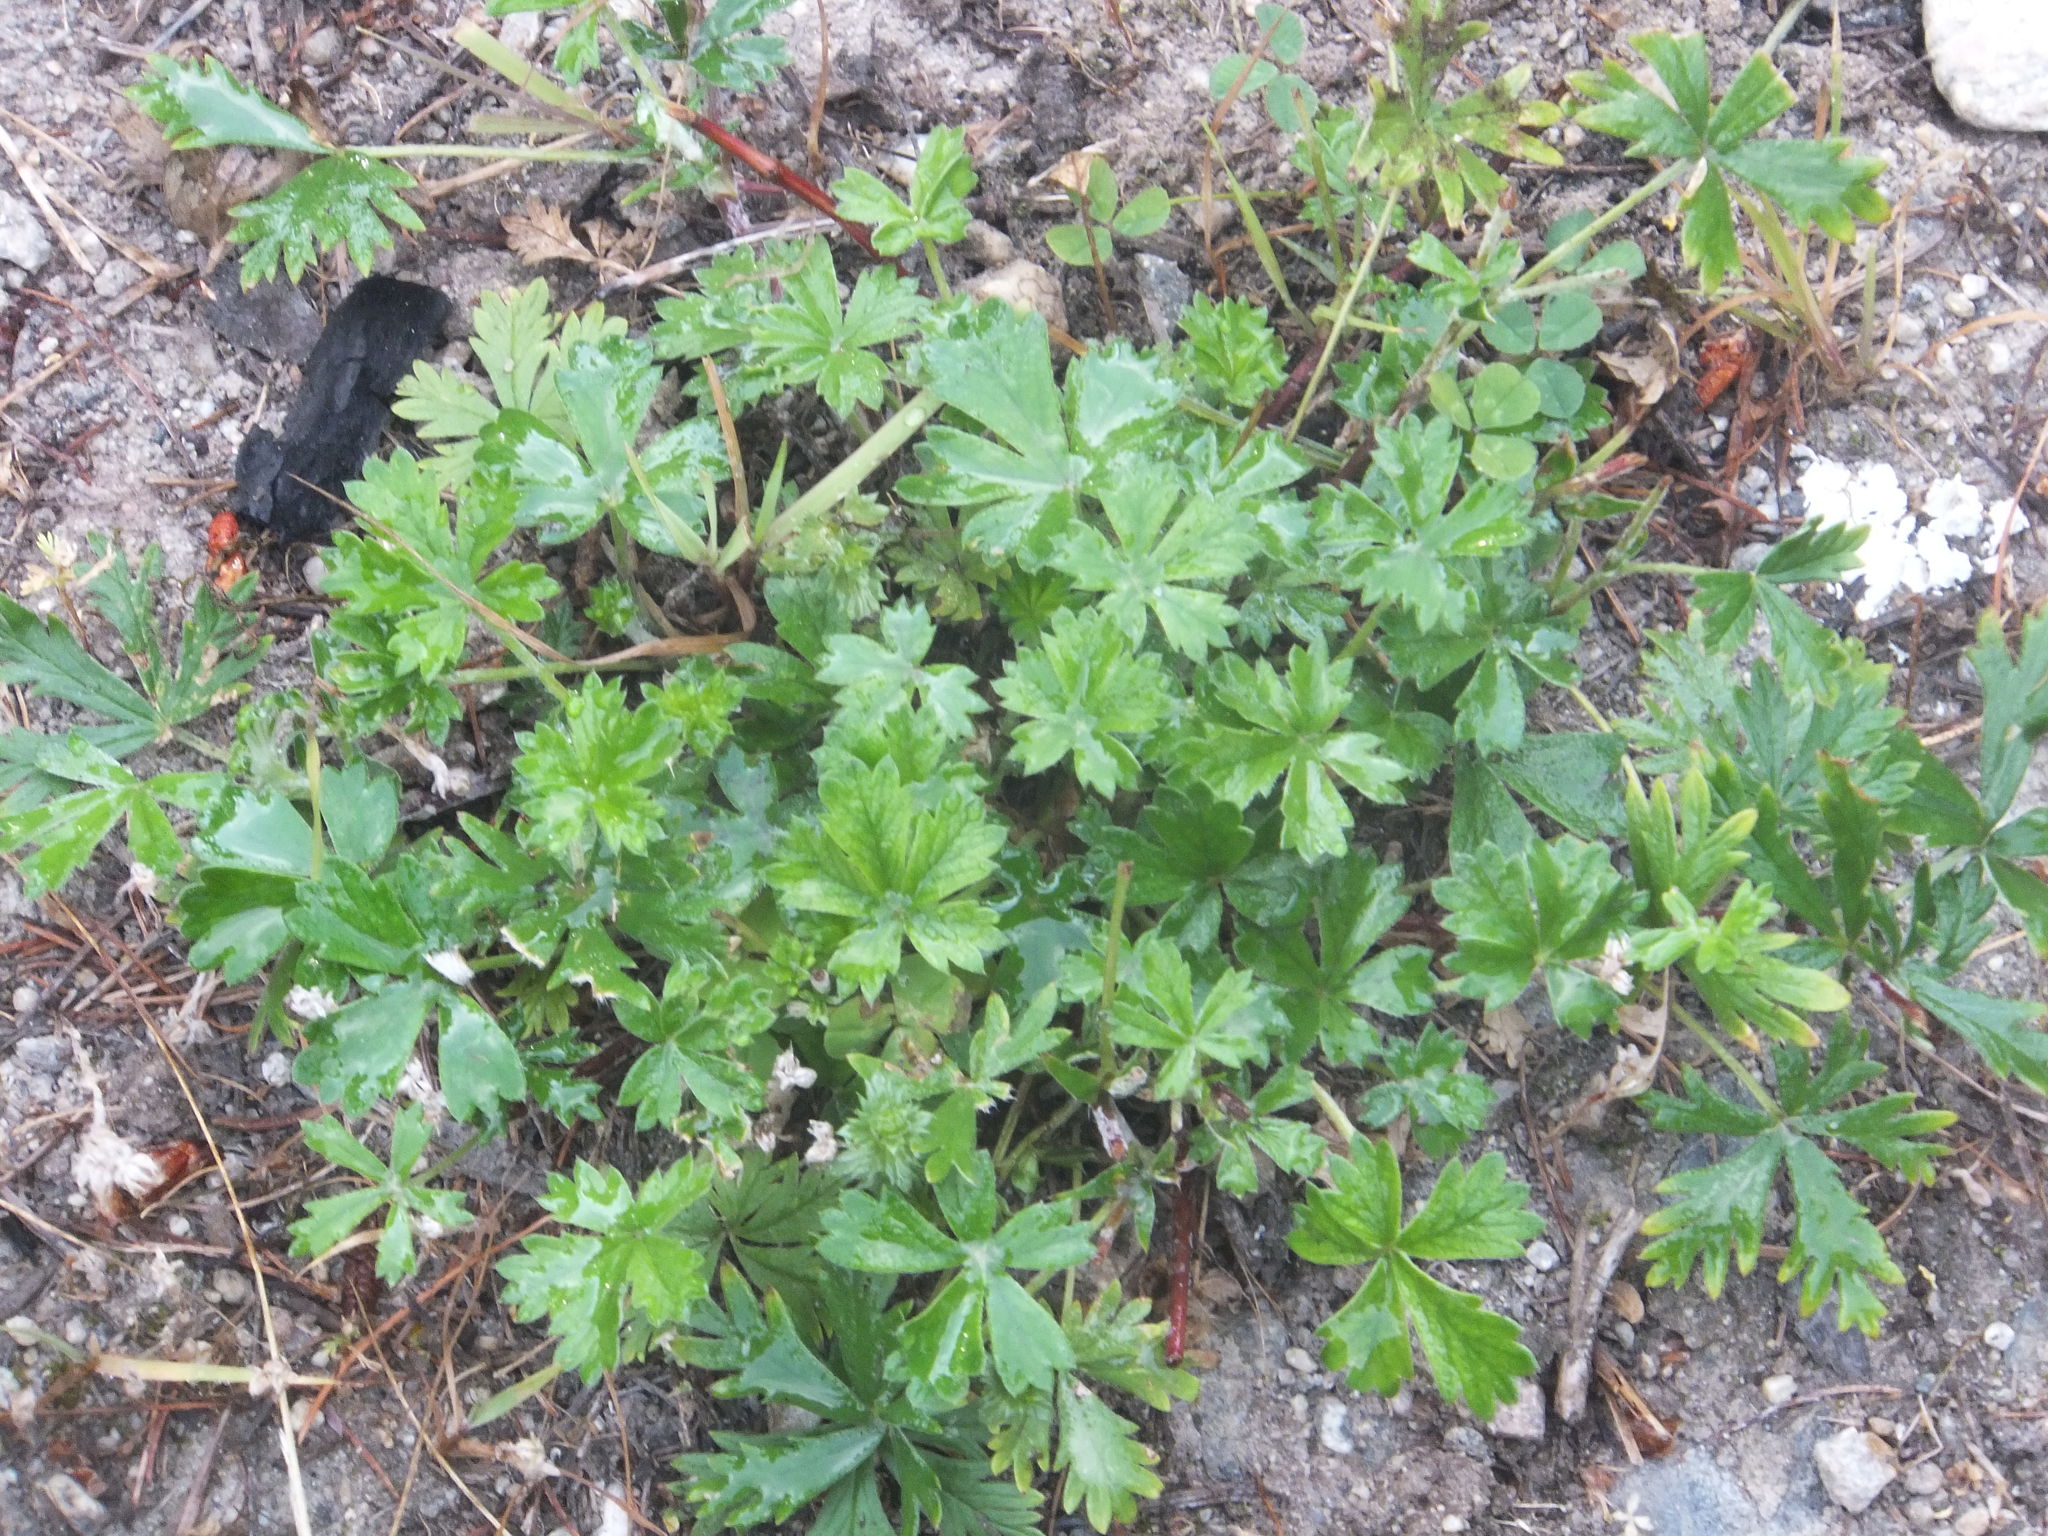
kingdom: Plantae
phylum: Tracheophyta
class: Magnoliopsida
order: Rosales
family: Rosaceae
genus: Potentilla
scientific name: Potentilla argentea
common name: Hoary cinquefoil
